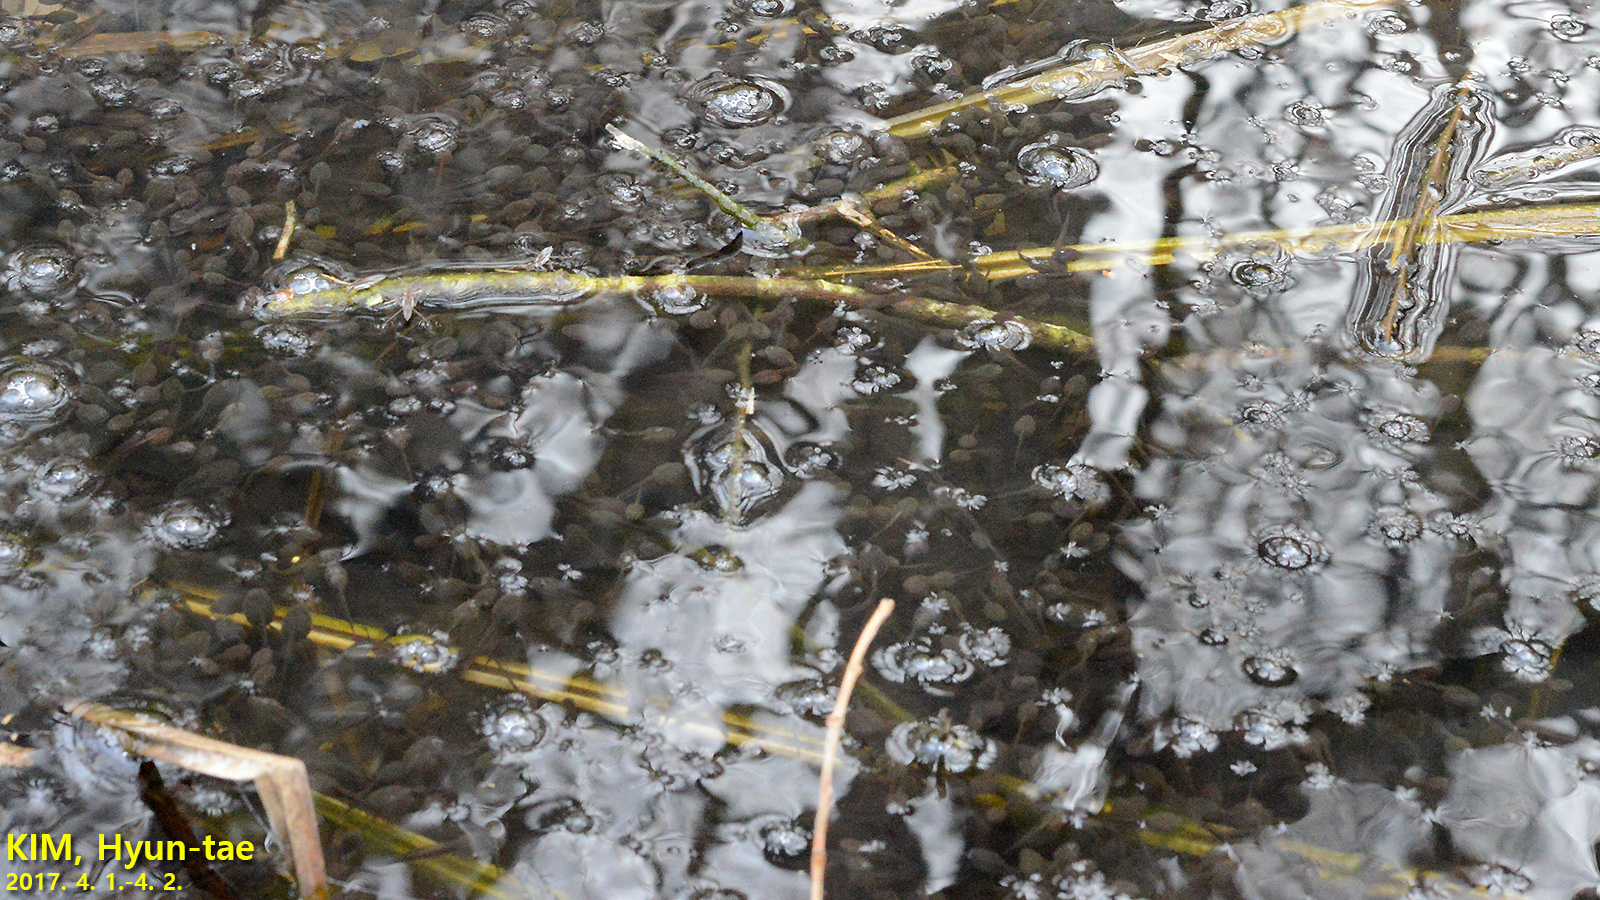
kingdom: Animalia
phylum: Chordata
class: Amphibia
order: Anura
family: Ranidae
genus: Rana
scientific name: Rana uenoi
